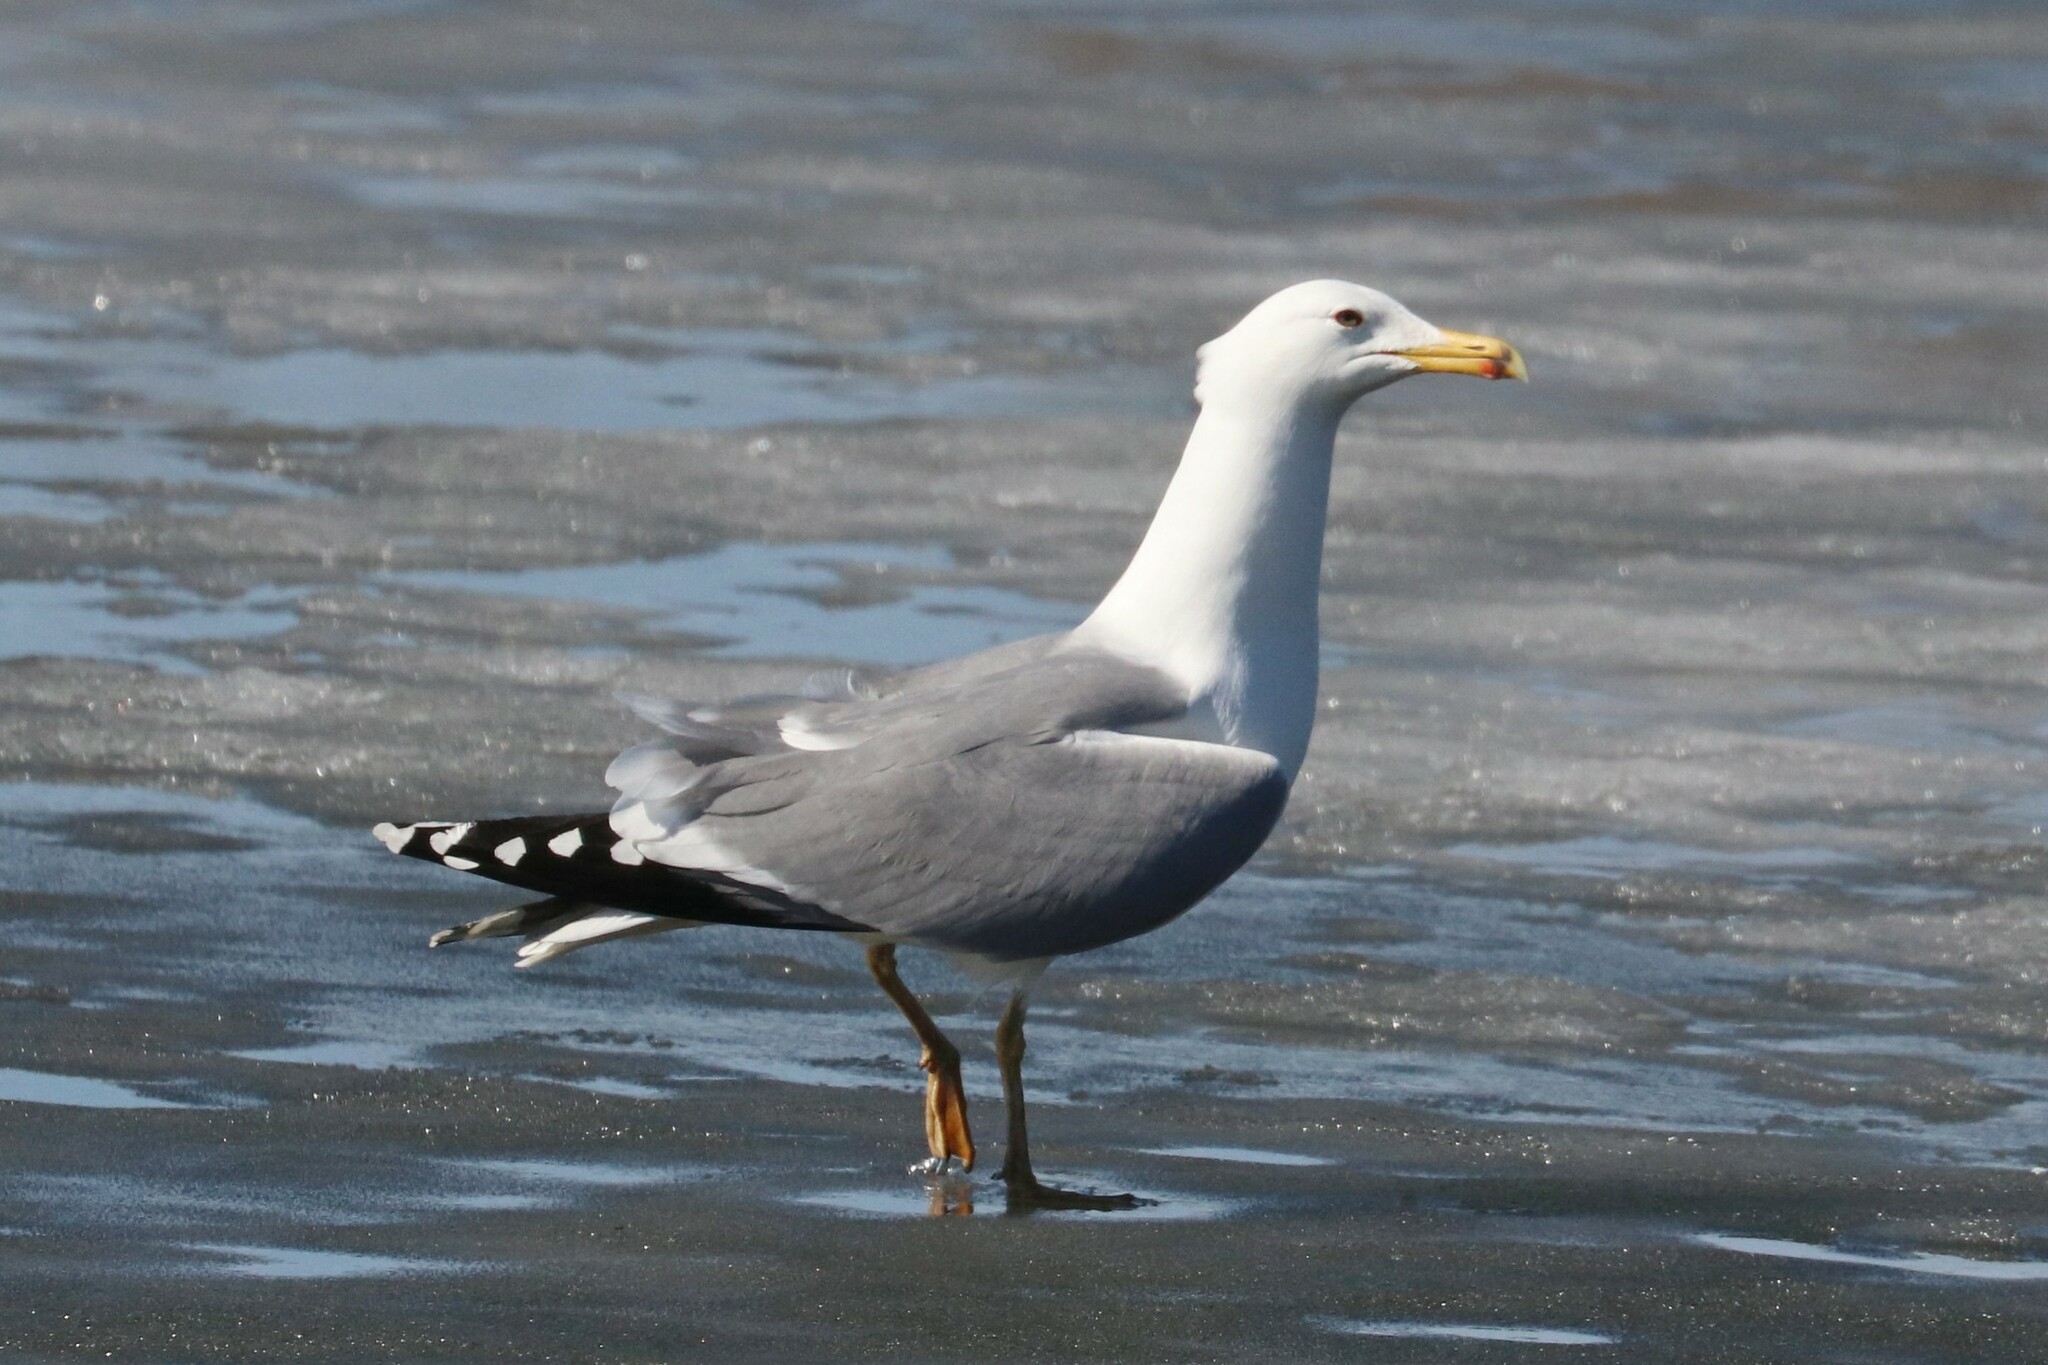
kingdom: Animalia
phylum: Chordata
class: Aves
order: Charadriiformes
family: Laridae
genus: Larus
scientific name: Larus cachinnans
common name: Caspian gull
